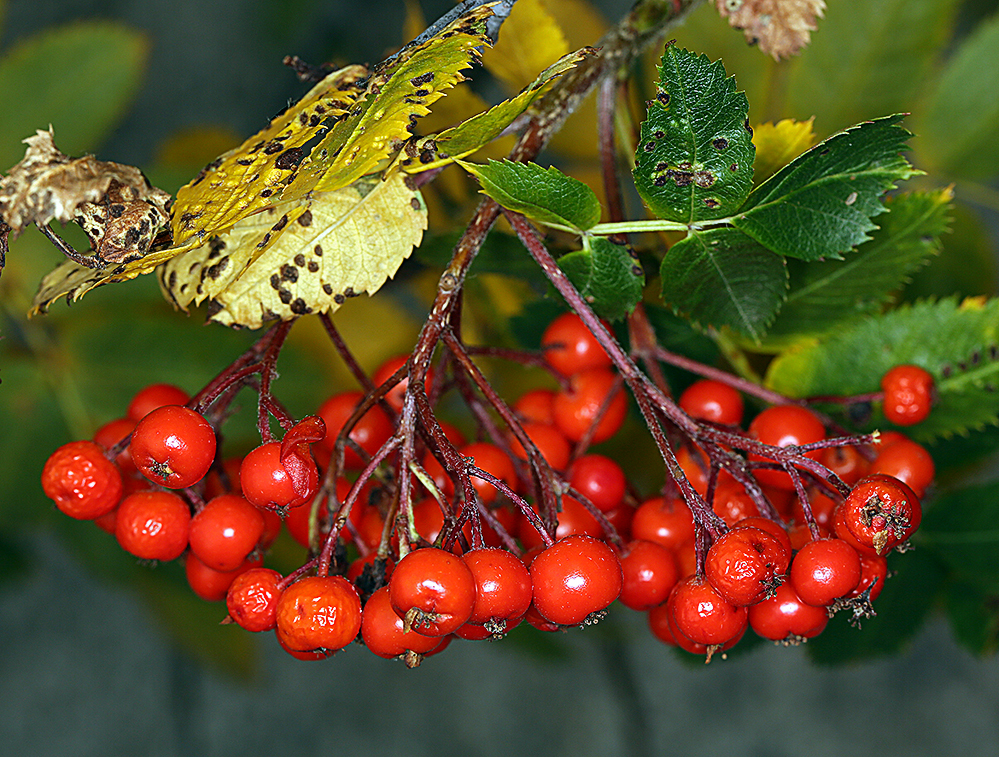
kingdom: Plantae
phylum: Tracheophyta
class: Magnoliopsida
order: Rosales
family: Rosaceae
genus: Sorbus
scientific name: Sorbus californica
